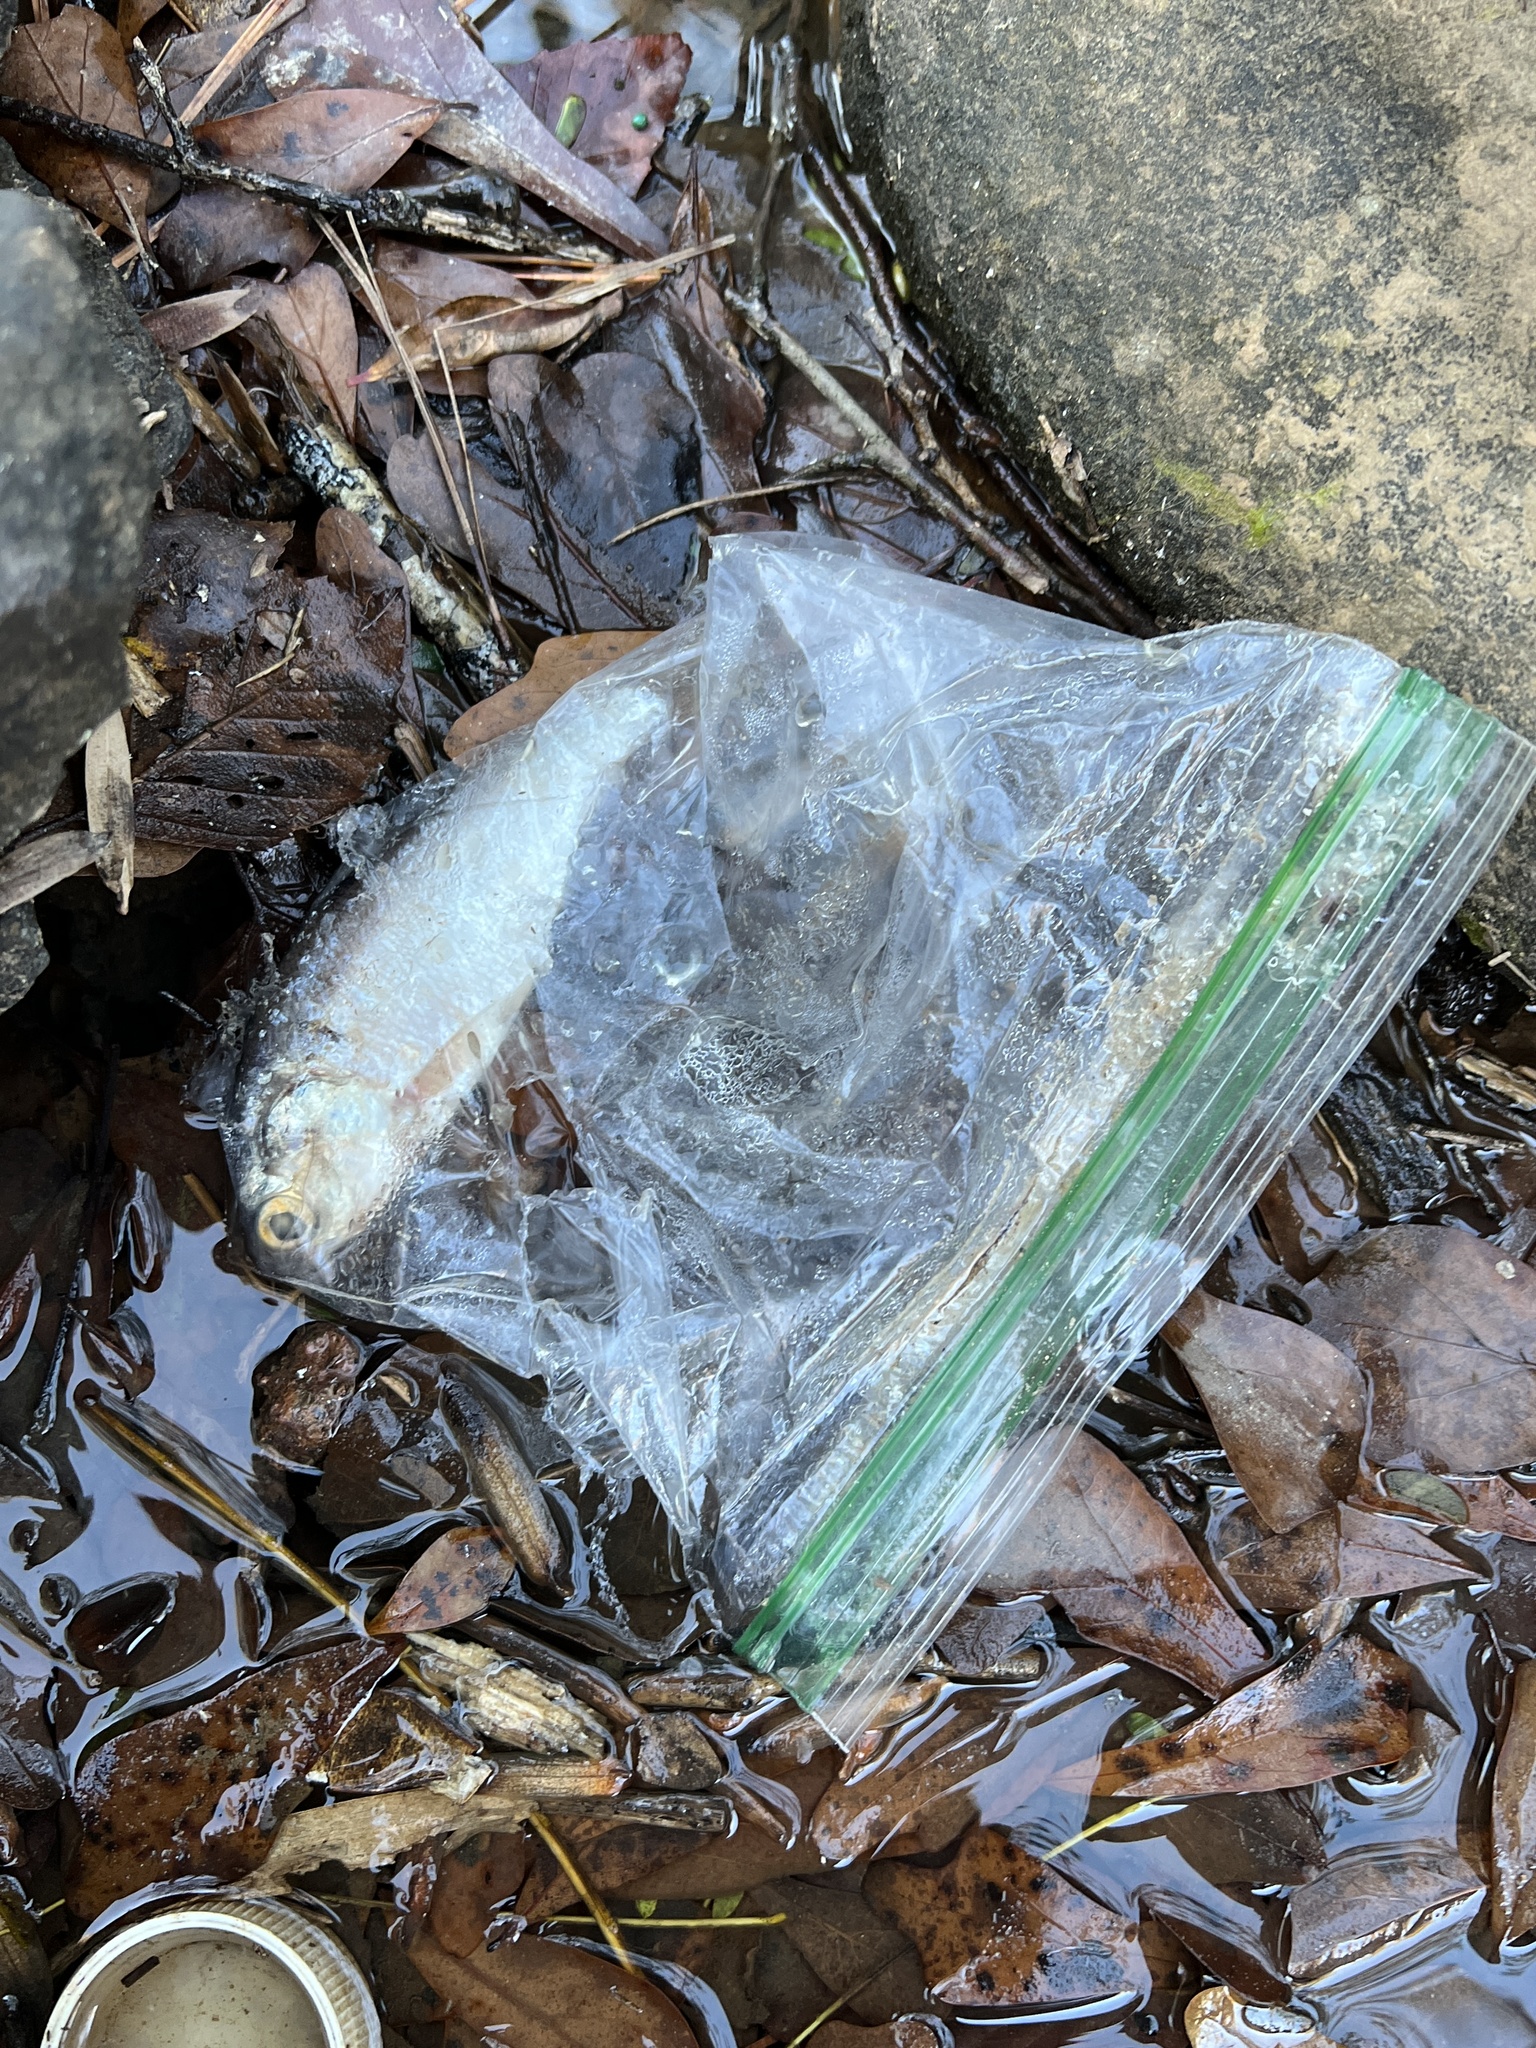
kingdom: Animalia
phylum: Chordata
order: Clupeiformes
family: Clupeidae
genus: Dorosoma
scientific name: Dorosoma cepedianum
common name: Gizzard shad
